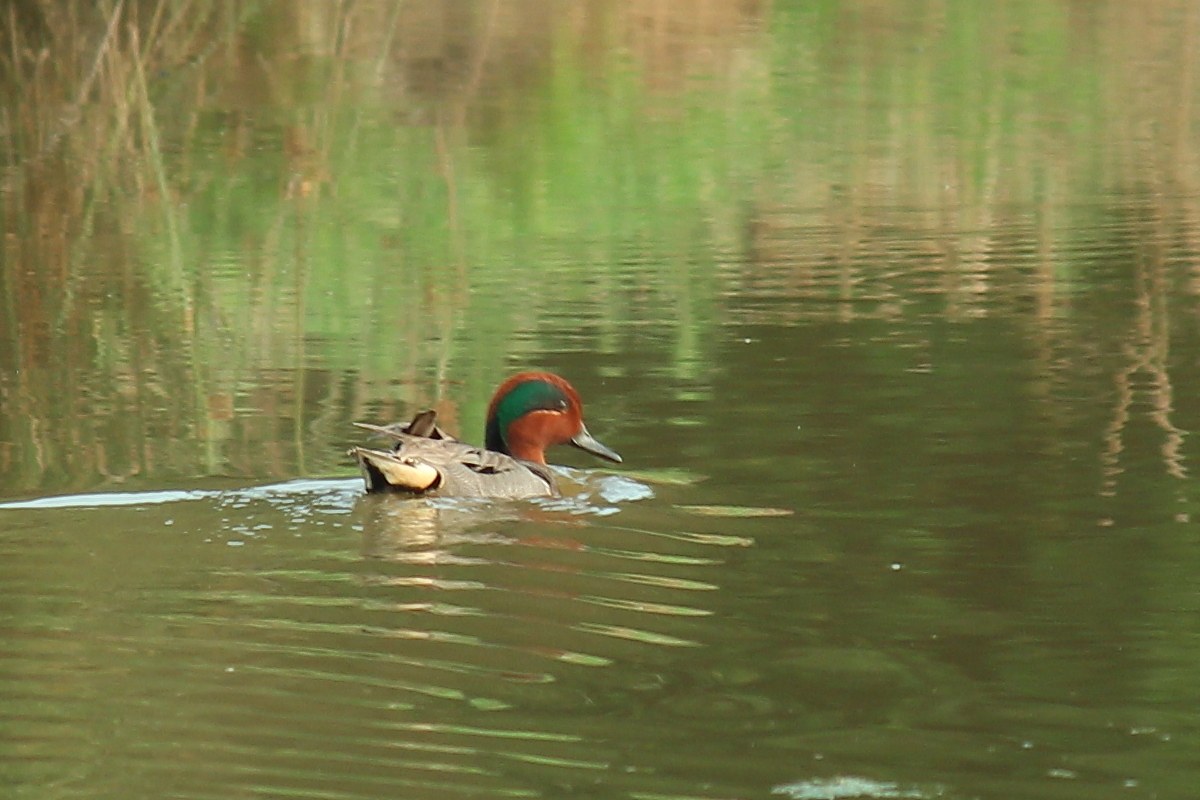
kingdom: Animalia
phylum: Chordata
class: Aves
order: Anseriformes
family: Anatidae
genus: Anas
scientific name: Anas carolinensis
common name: Green-winged teal
